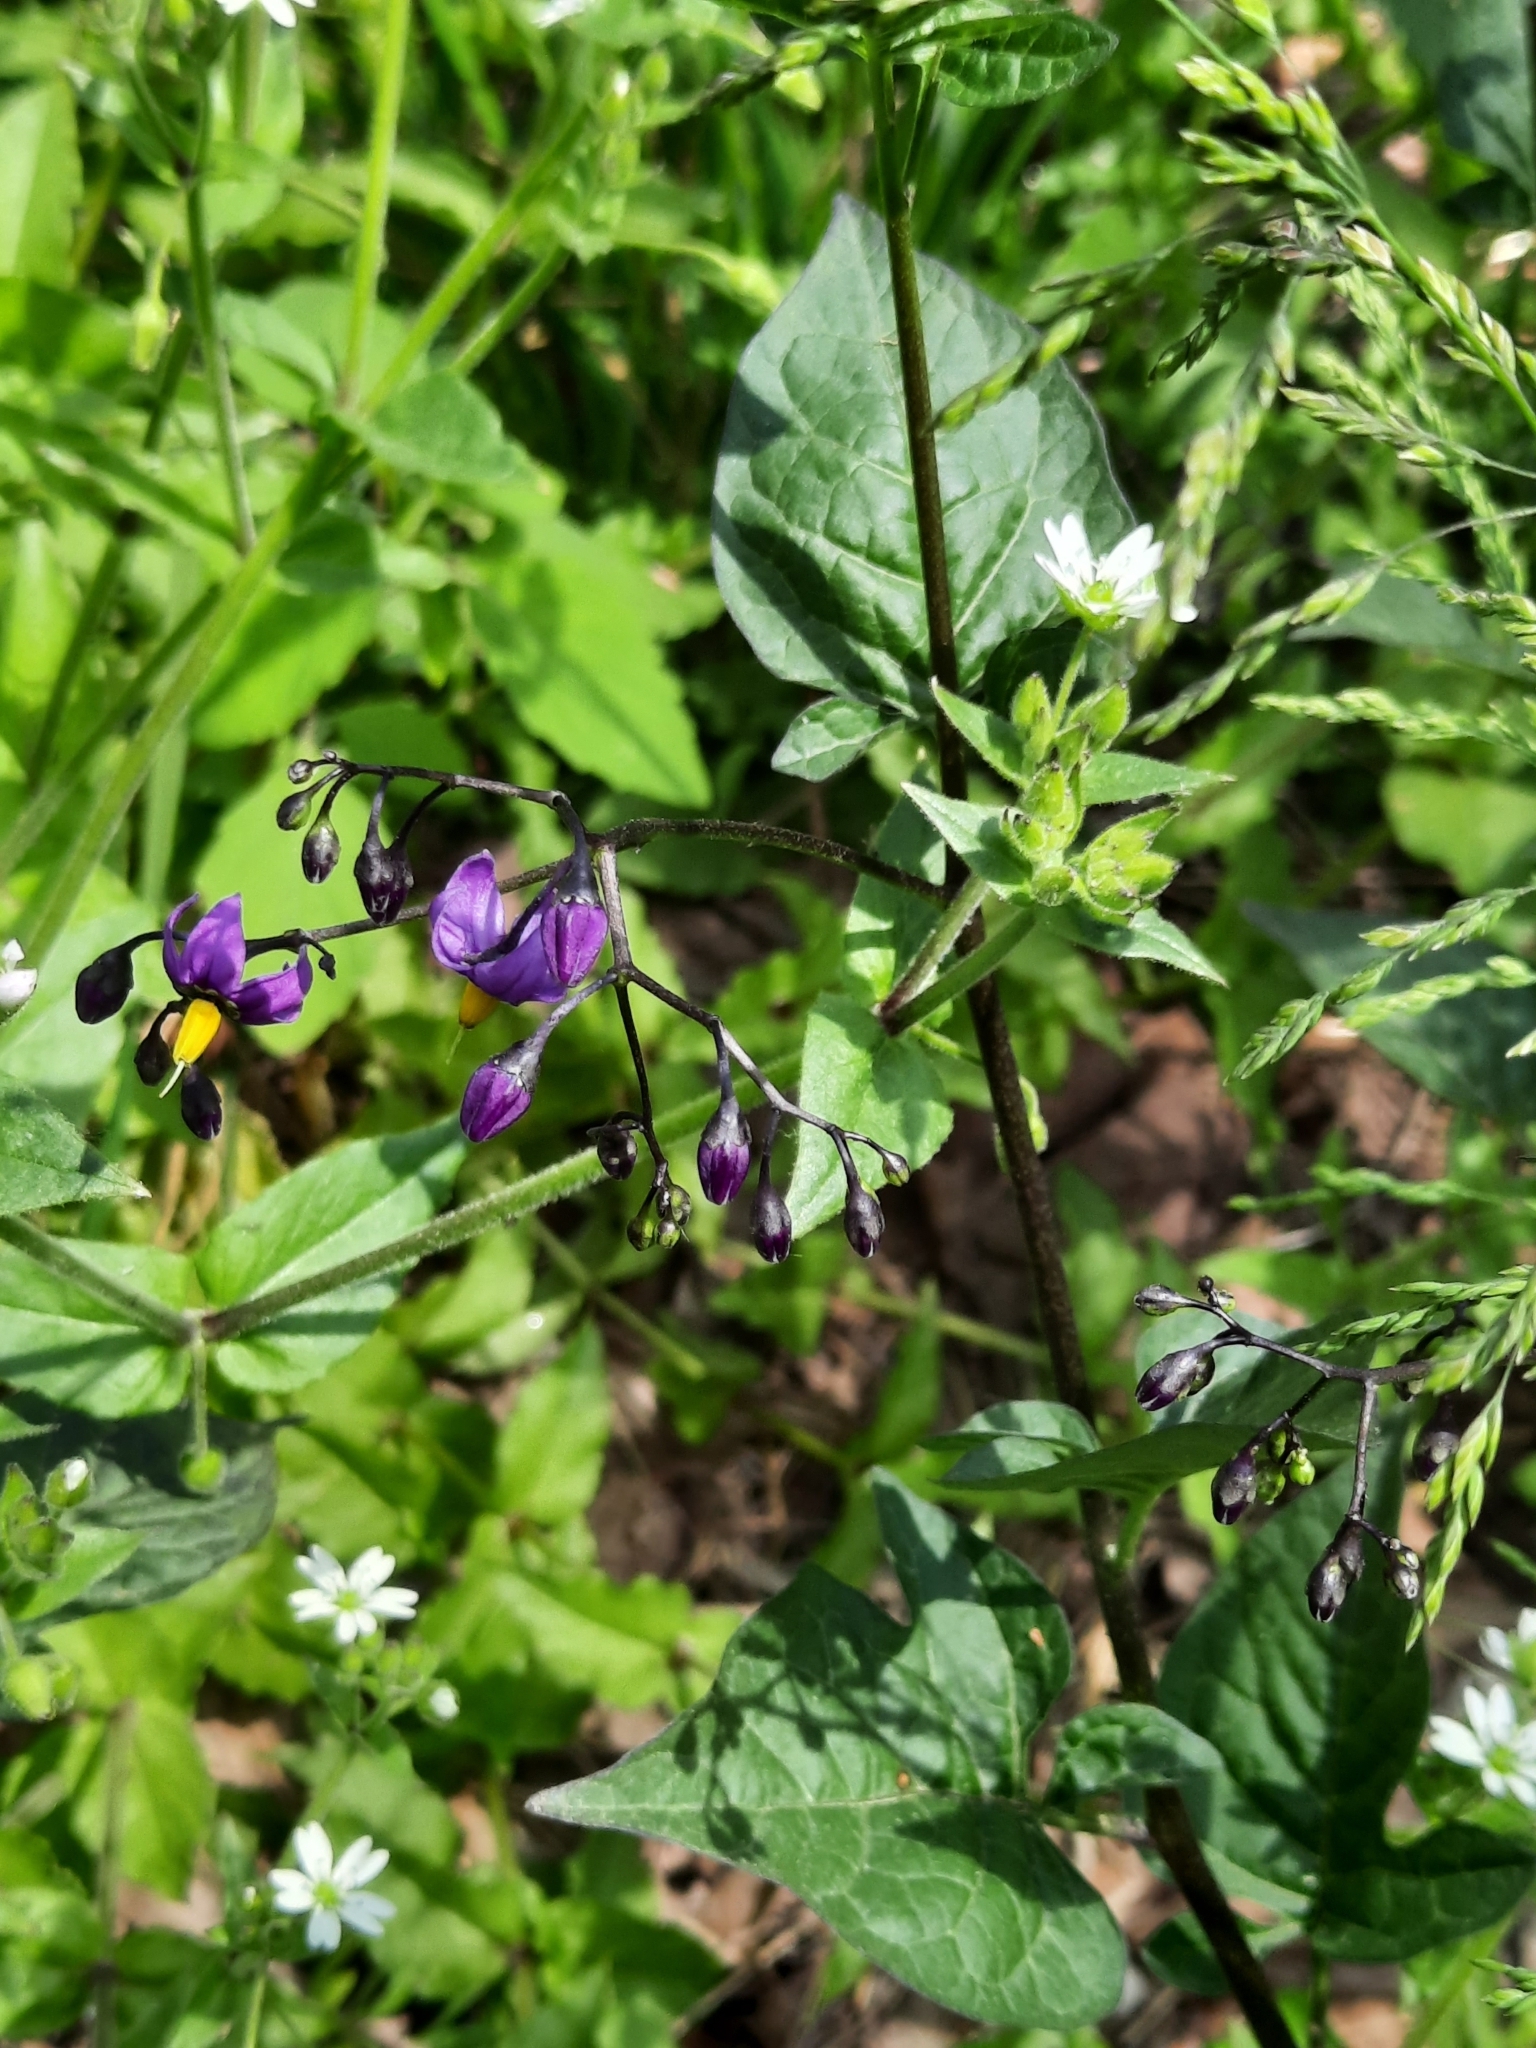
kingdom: Plantae
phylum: Tracheophyta
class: Magnoliopsida
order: Solanales
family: Solanaceae
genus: Solanum
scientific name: Solanum dulcamara
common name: Climbing nightshade
